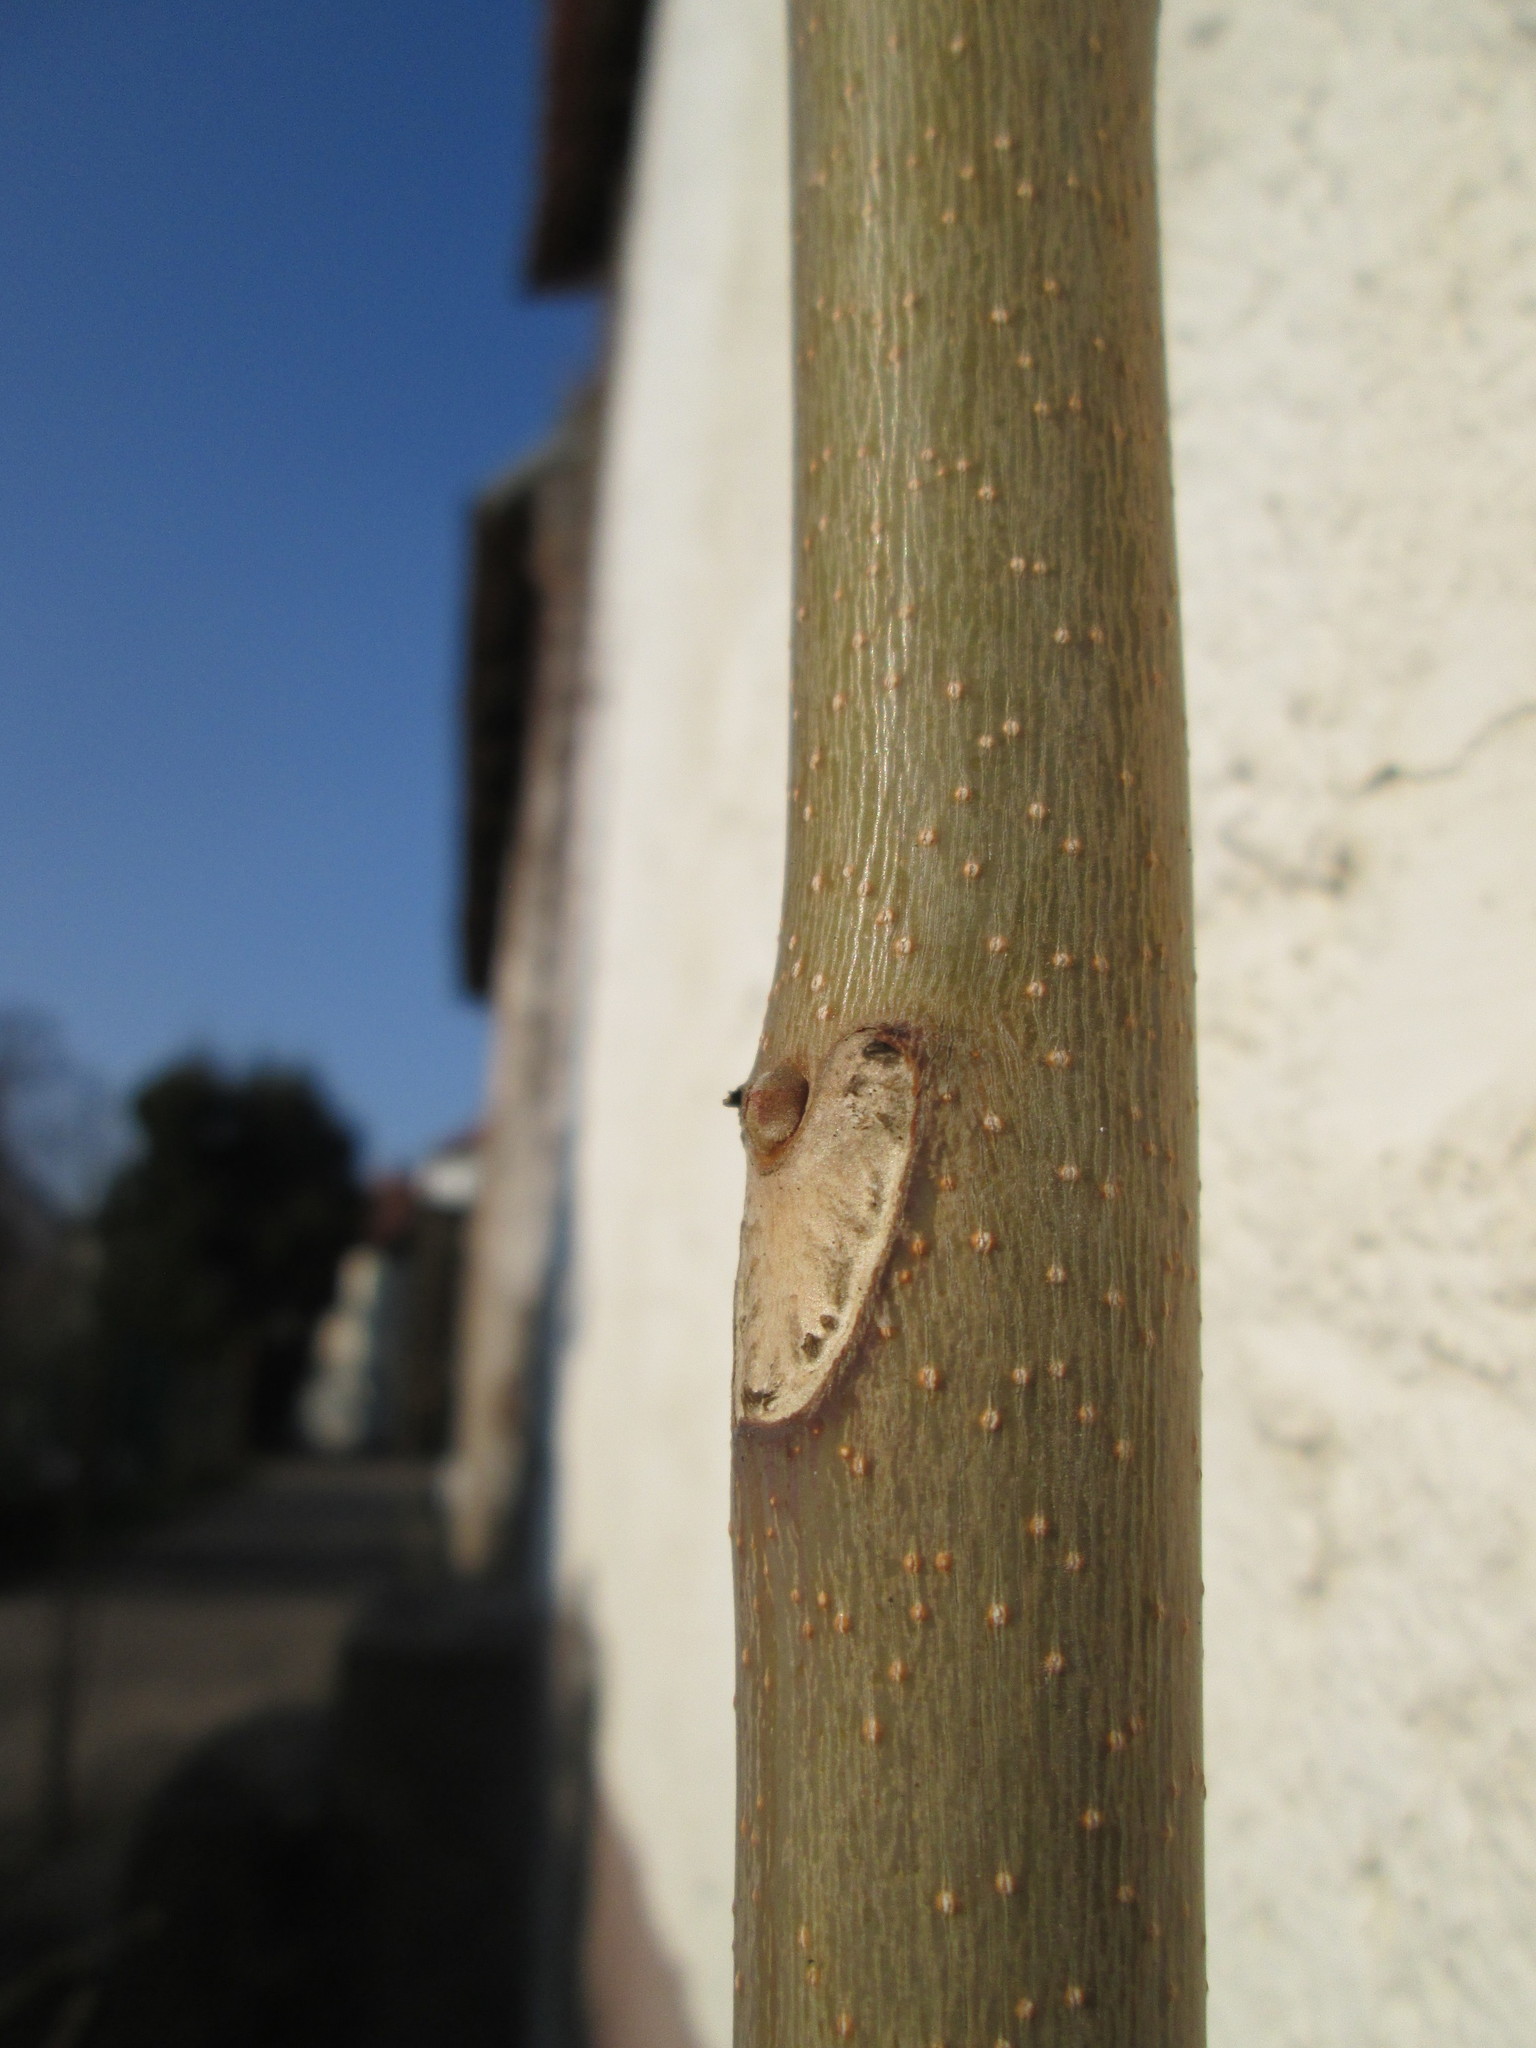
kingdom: Plantae
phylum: Tracheophyta
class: Magnoliopsida
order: Sapindales
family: Simaroubaceae
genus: Ailanthus
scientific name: Ailanthus altissima
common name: Tree-of-heaven
